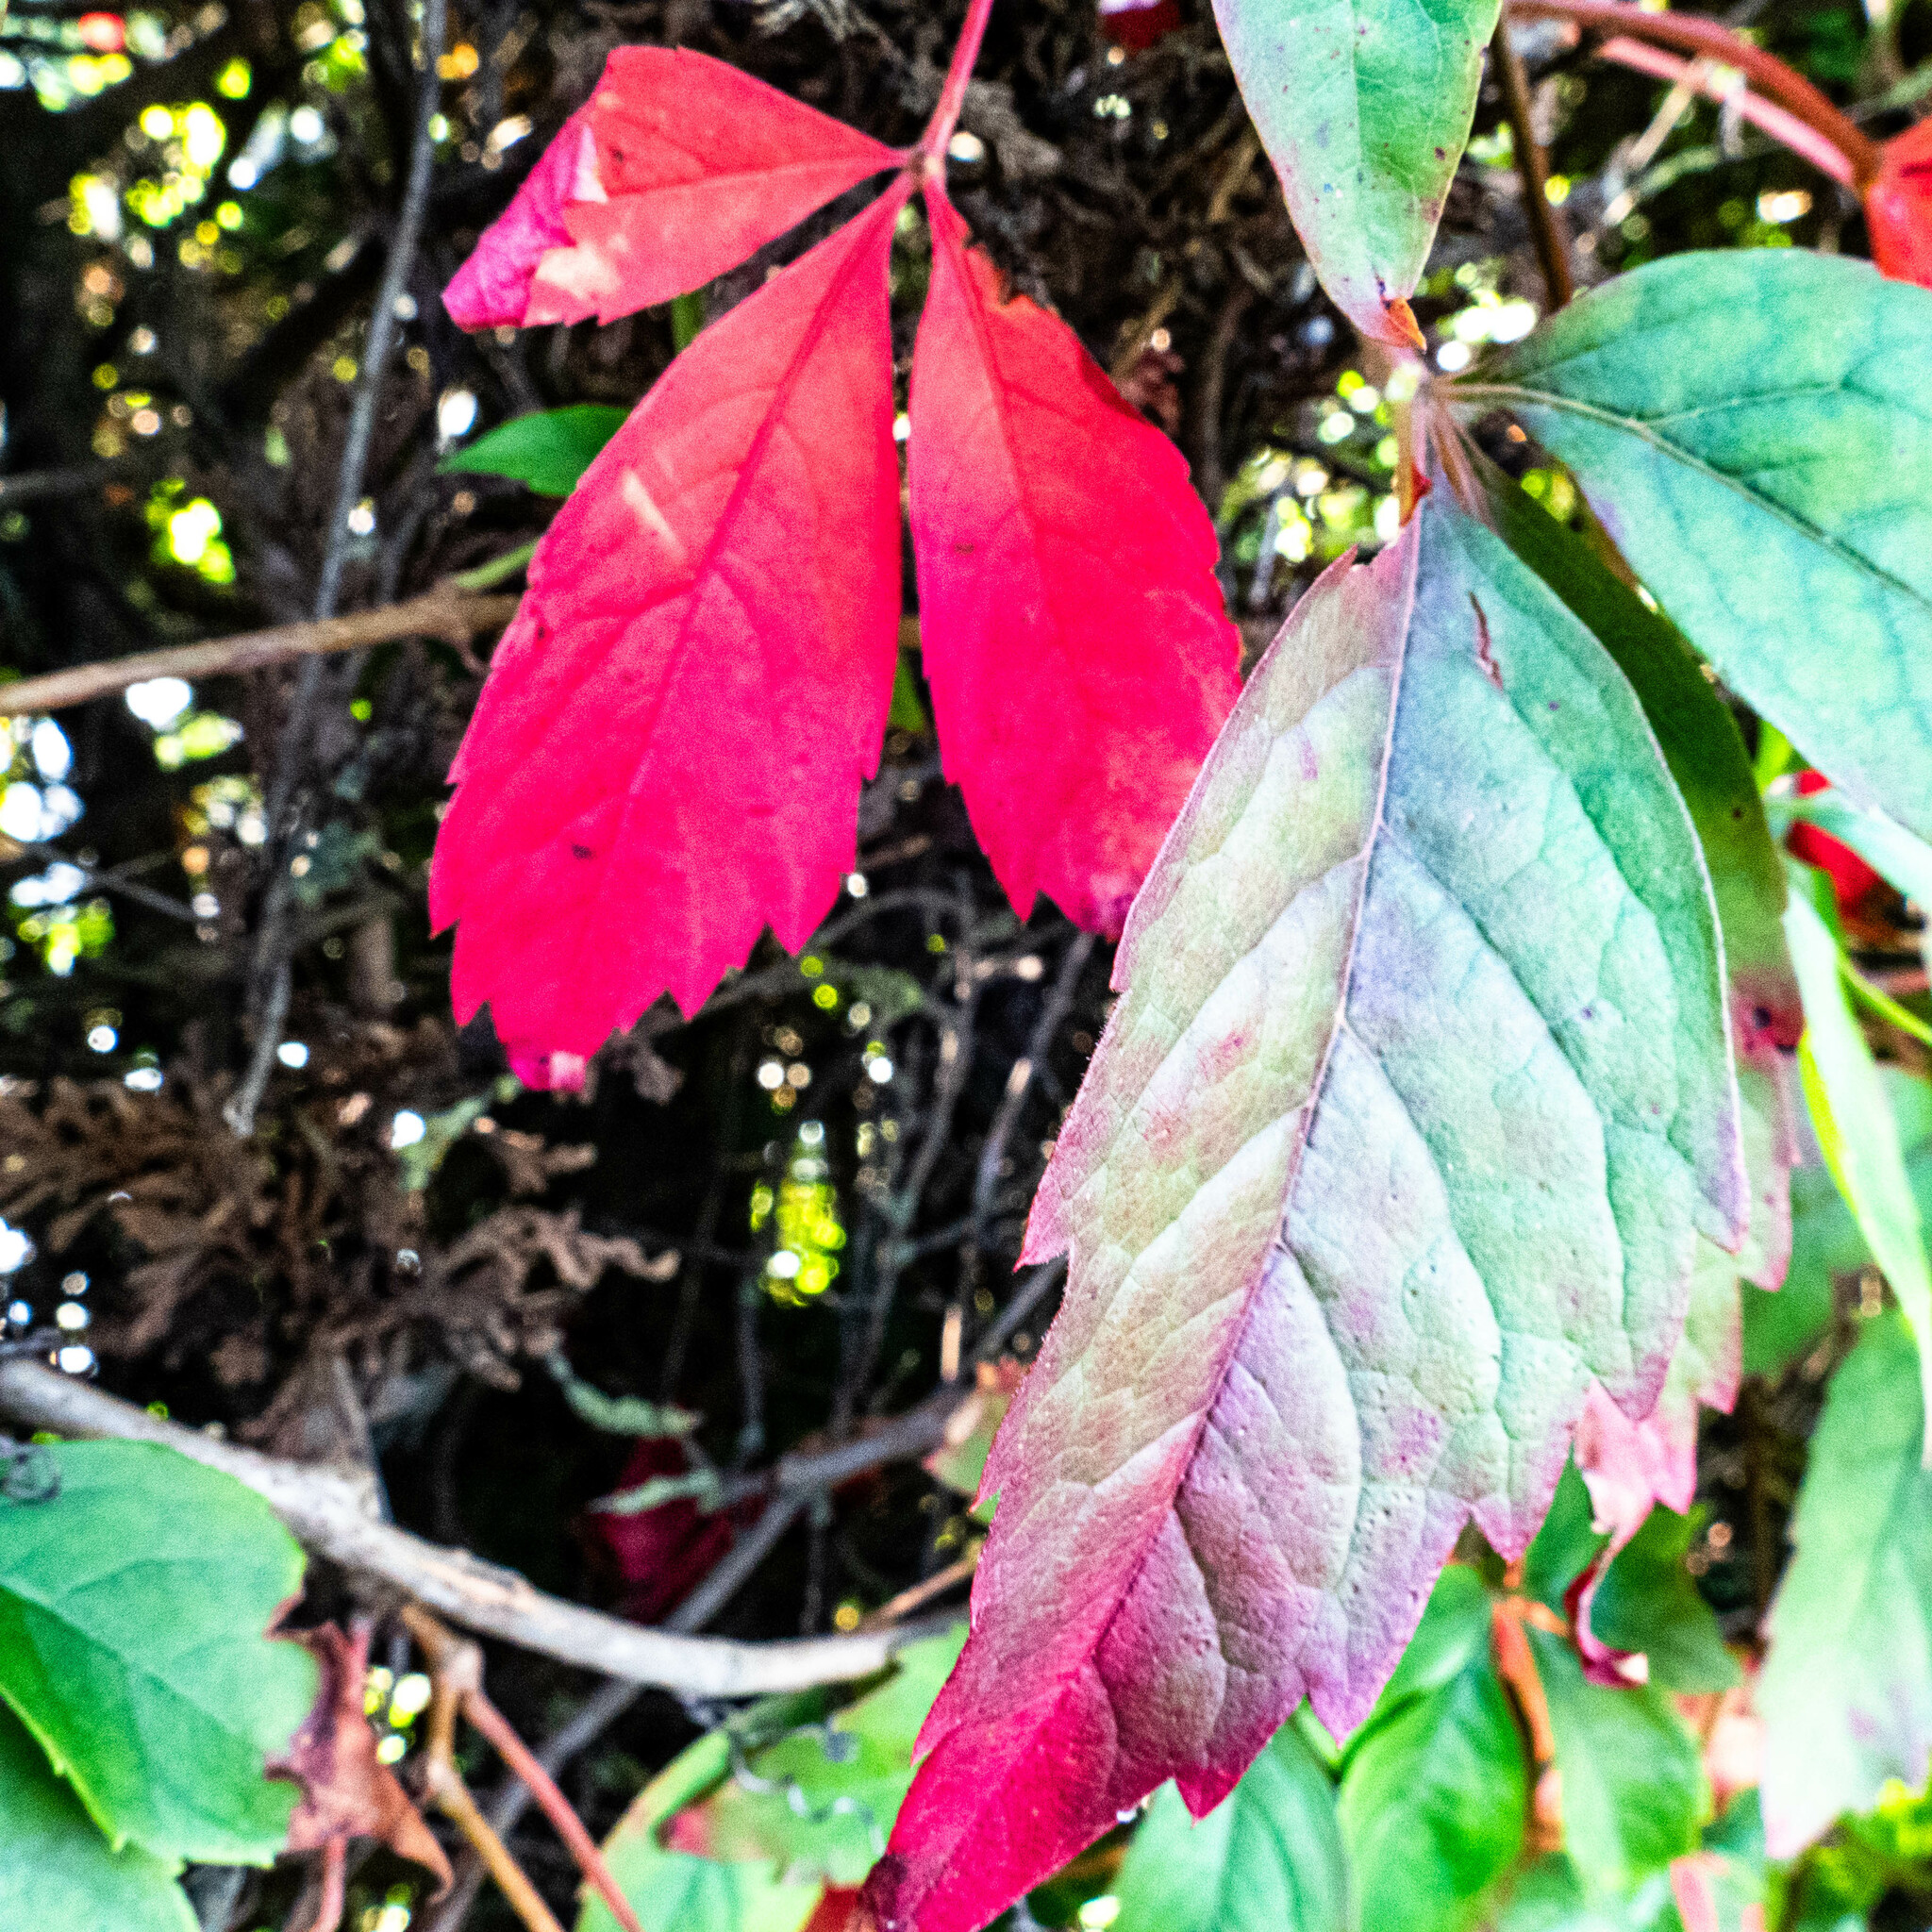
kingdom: Plantae
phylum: Tracheophyta
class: Magnoliopsida
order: Vitales
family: Vitaceae
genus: Parthenocissus
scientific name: Parthenocissus quinquefolia
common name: Virginia-creeper
